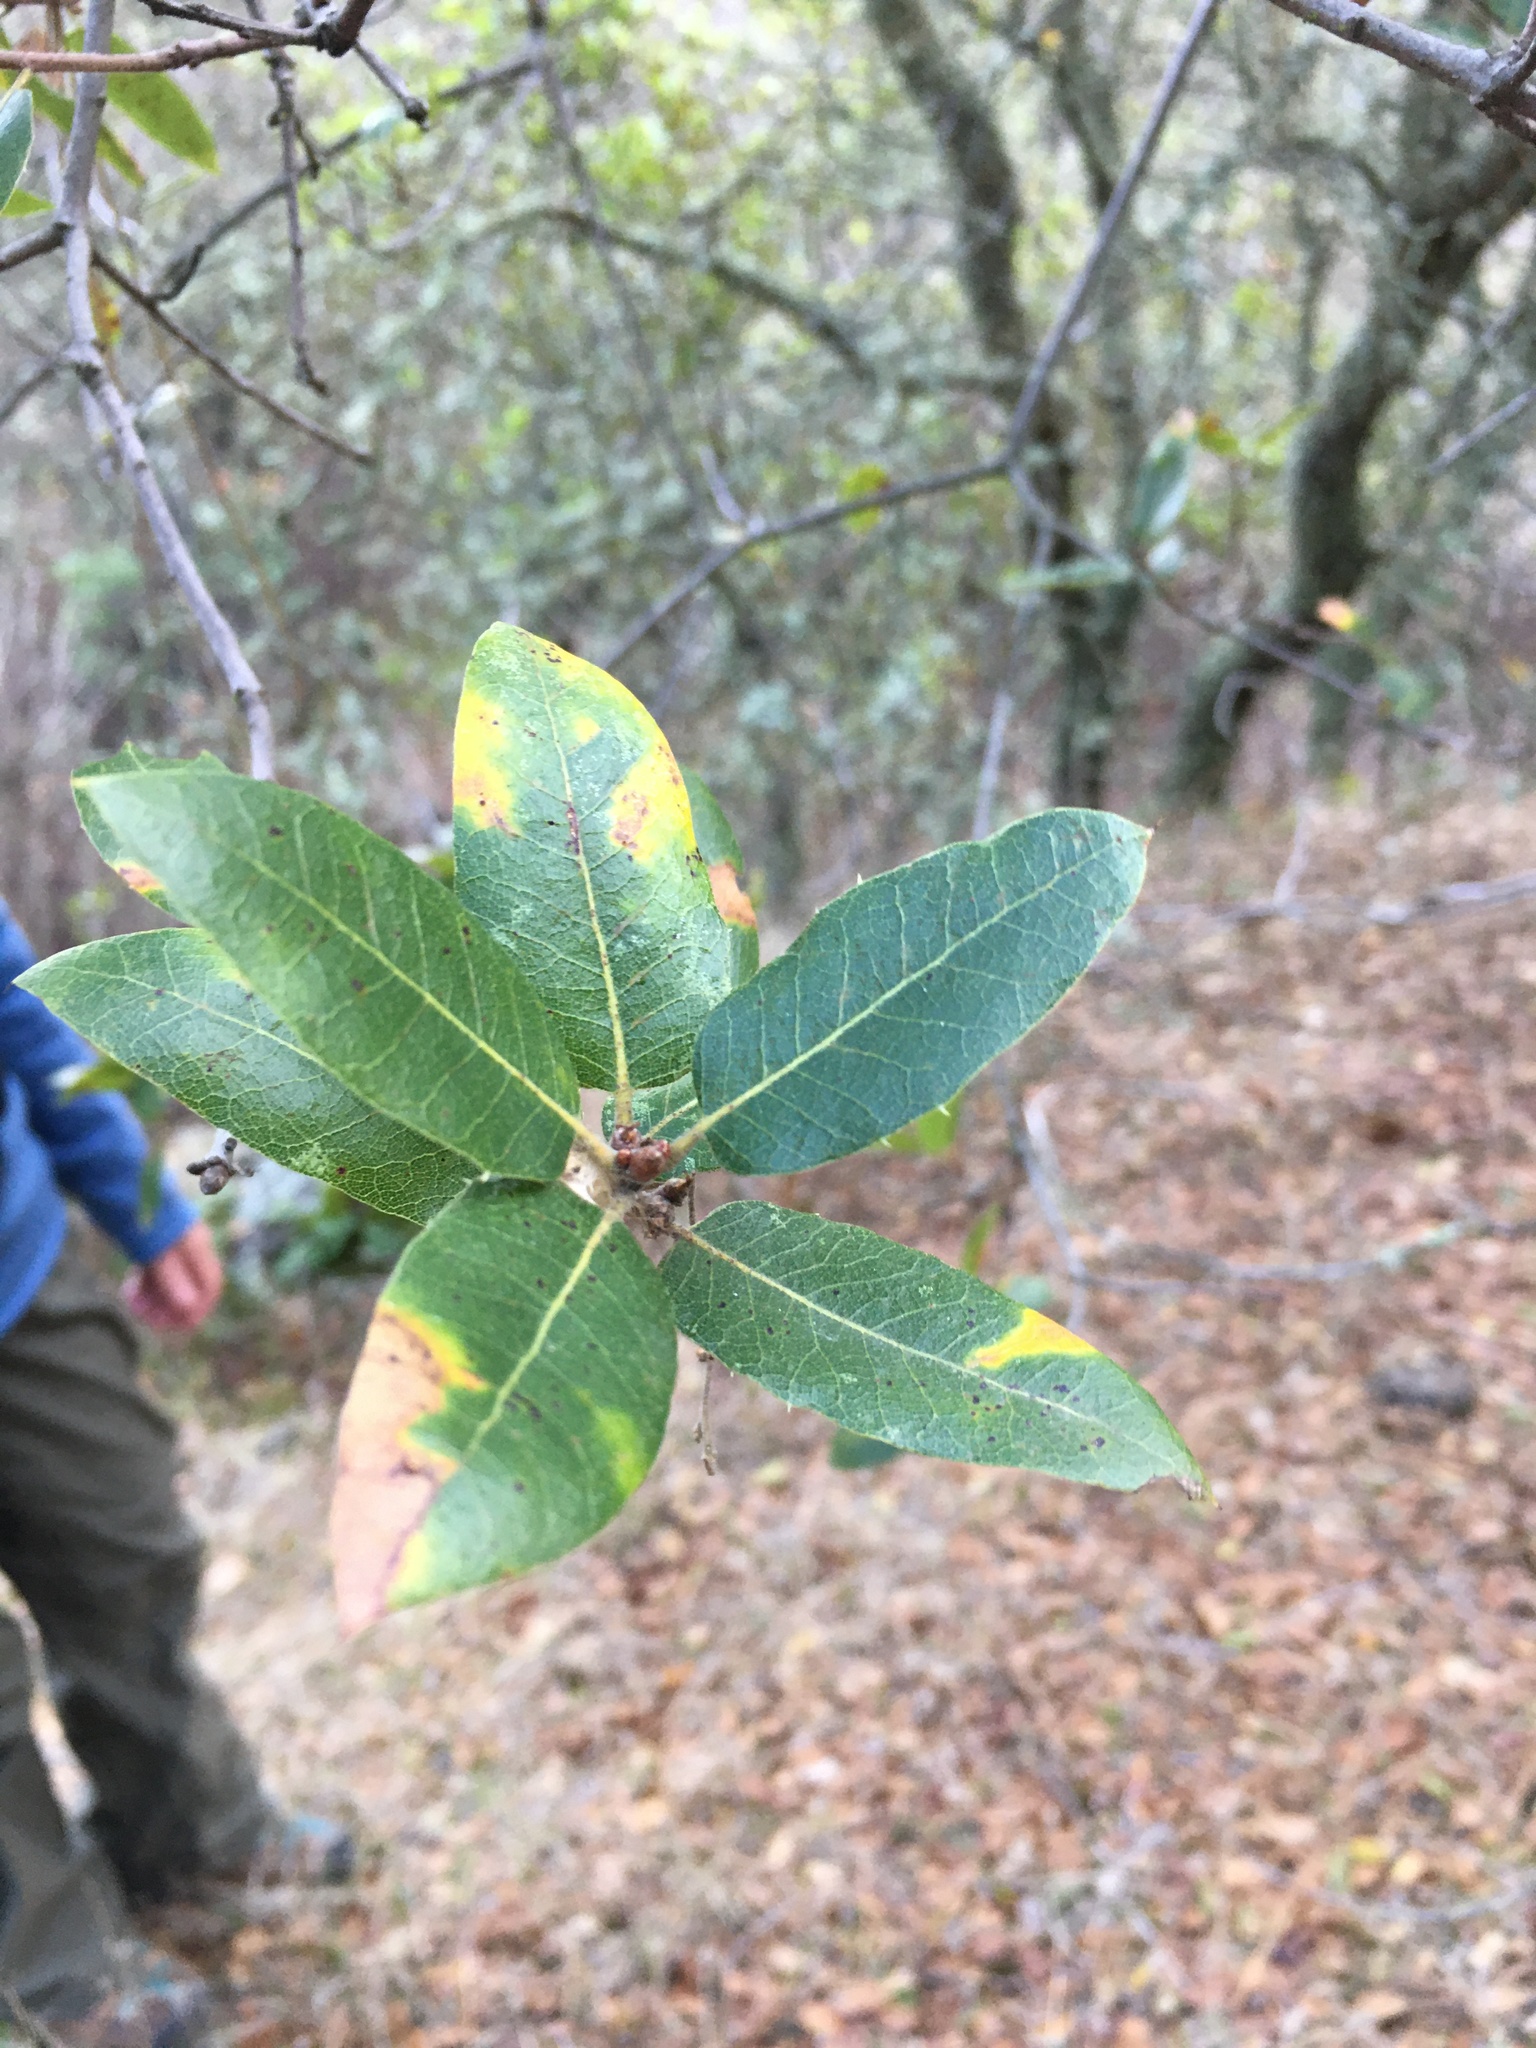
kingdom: Plantae
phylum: Tracheophyta
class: Magnoliopsida
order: Fagales
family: Fagaceae
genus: Quercus
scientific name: Quercus wislizeni
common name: Interior live oak
